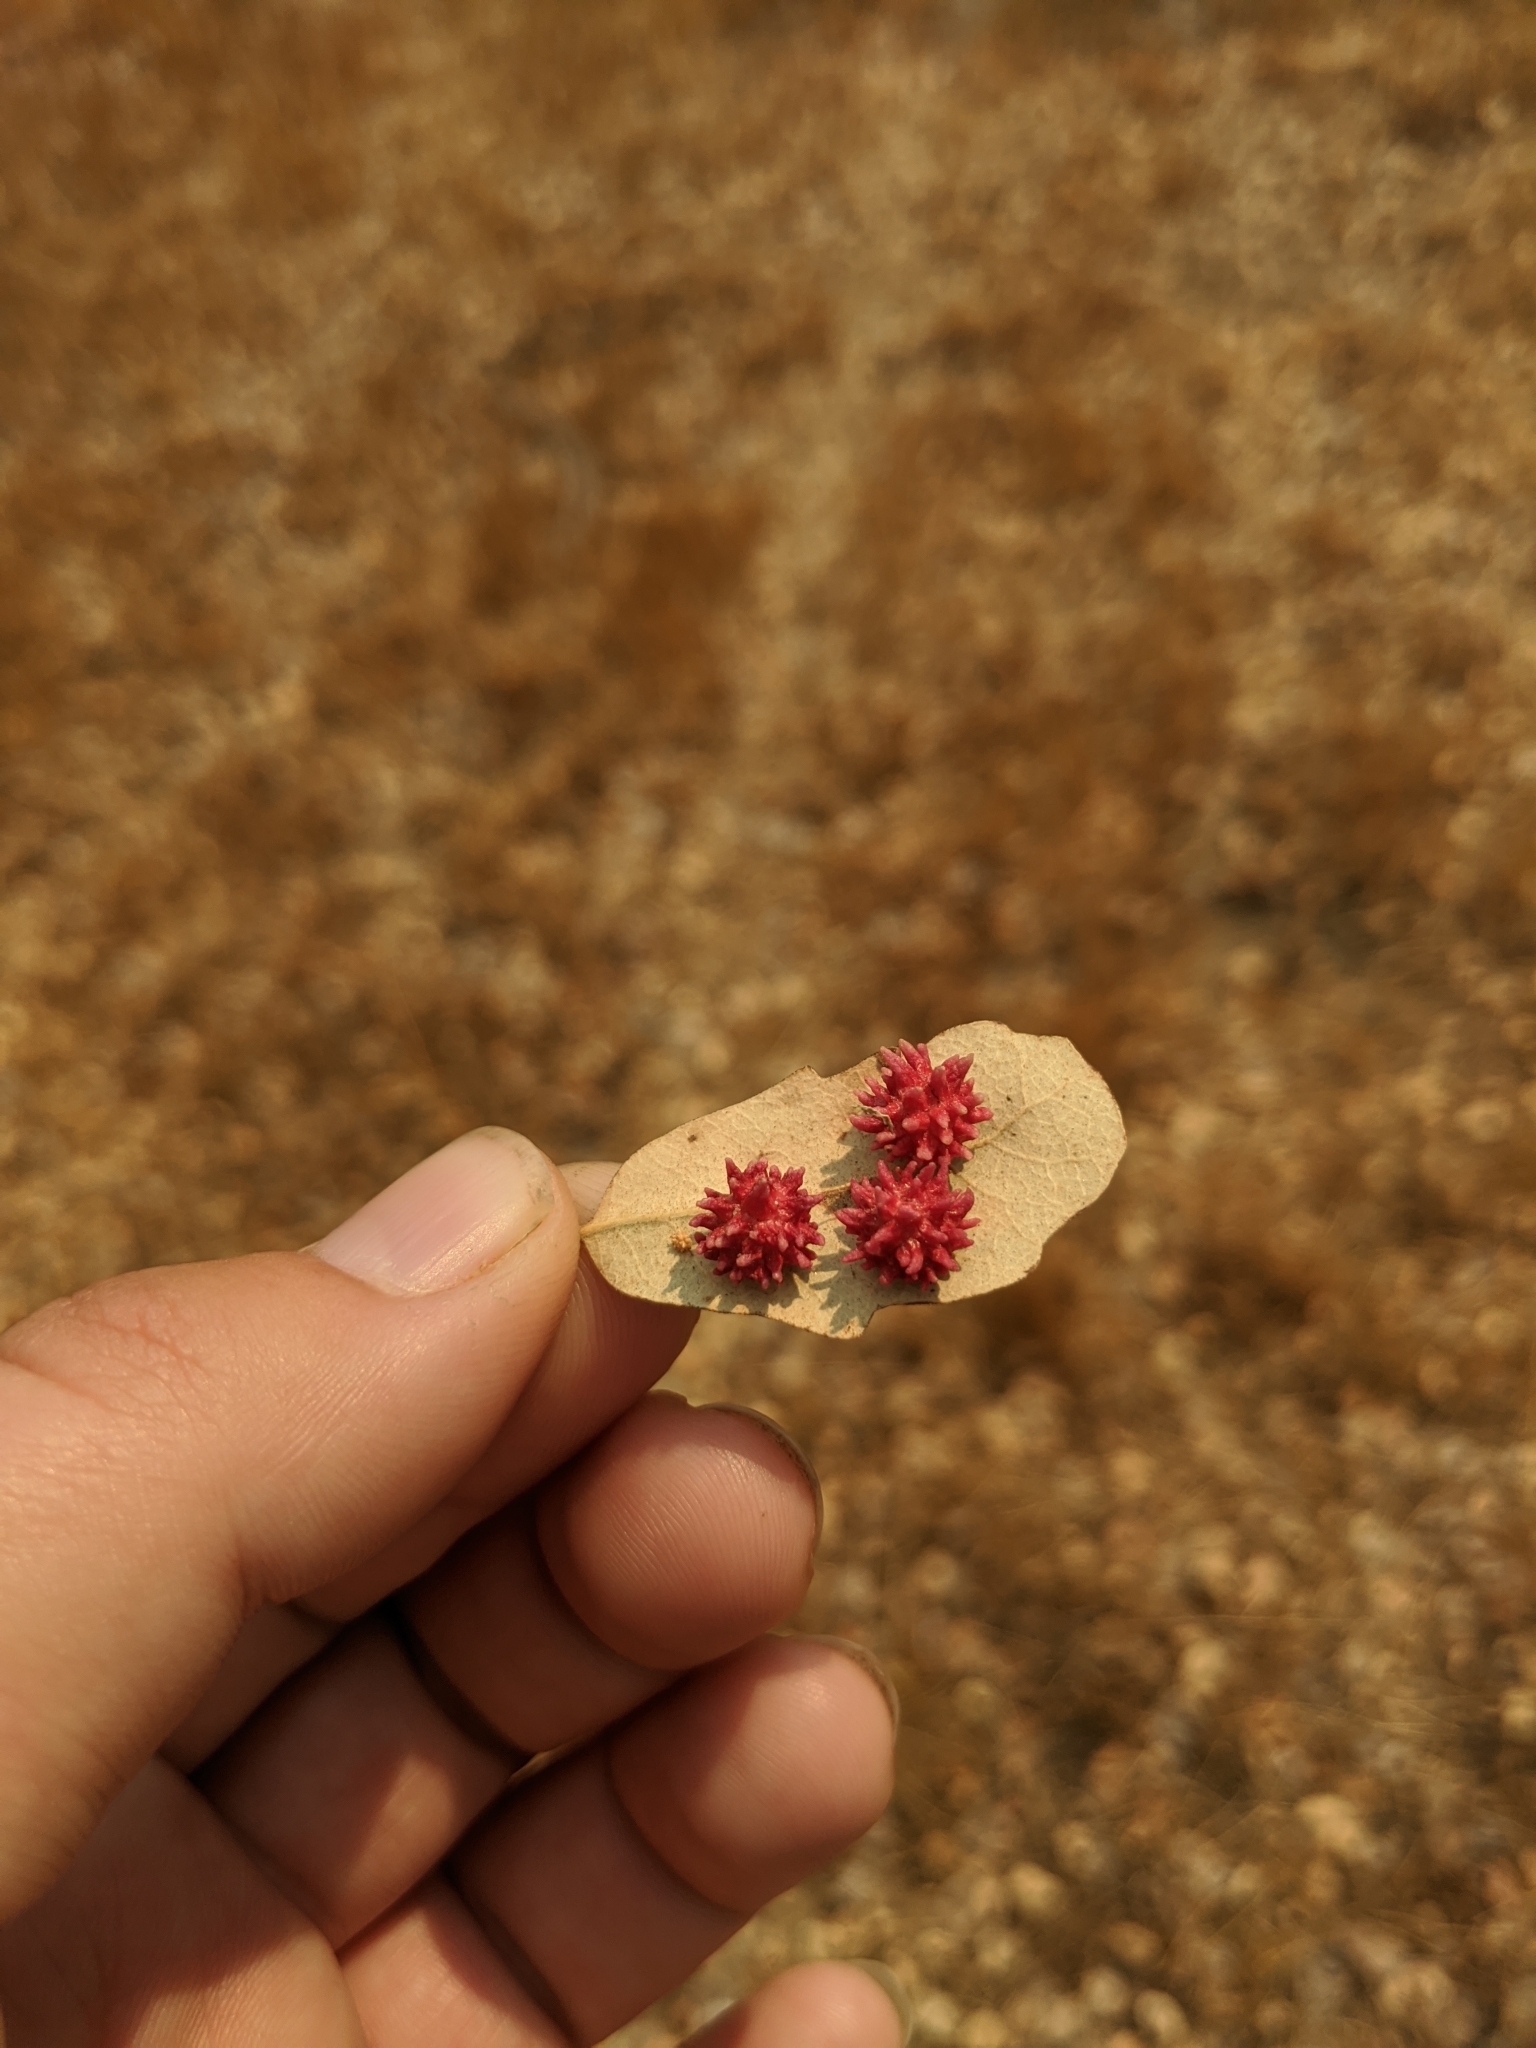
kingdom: Animalia
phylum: Arthropoda
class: Insecta
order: Hymenoptera
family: Cynipidae
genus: Cynips
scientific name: Cynips
